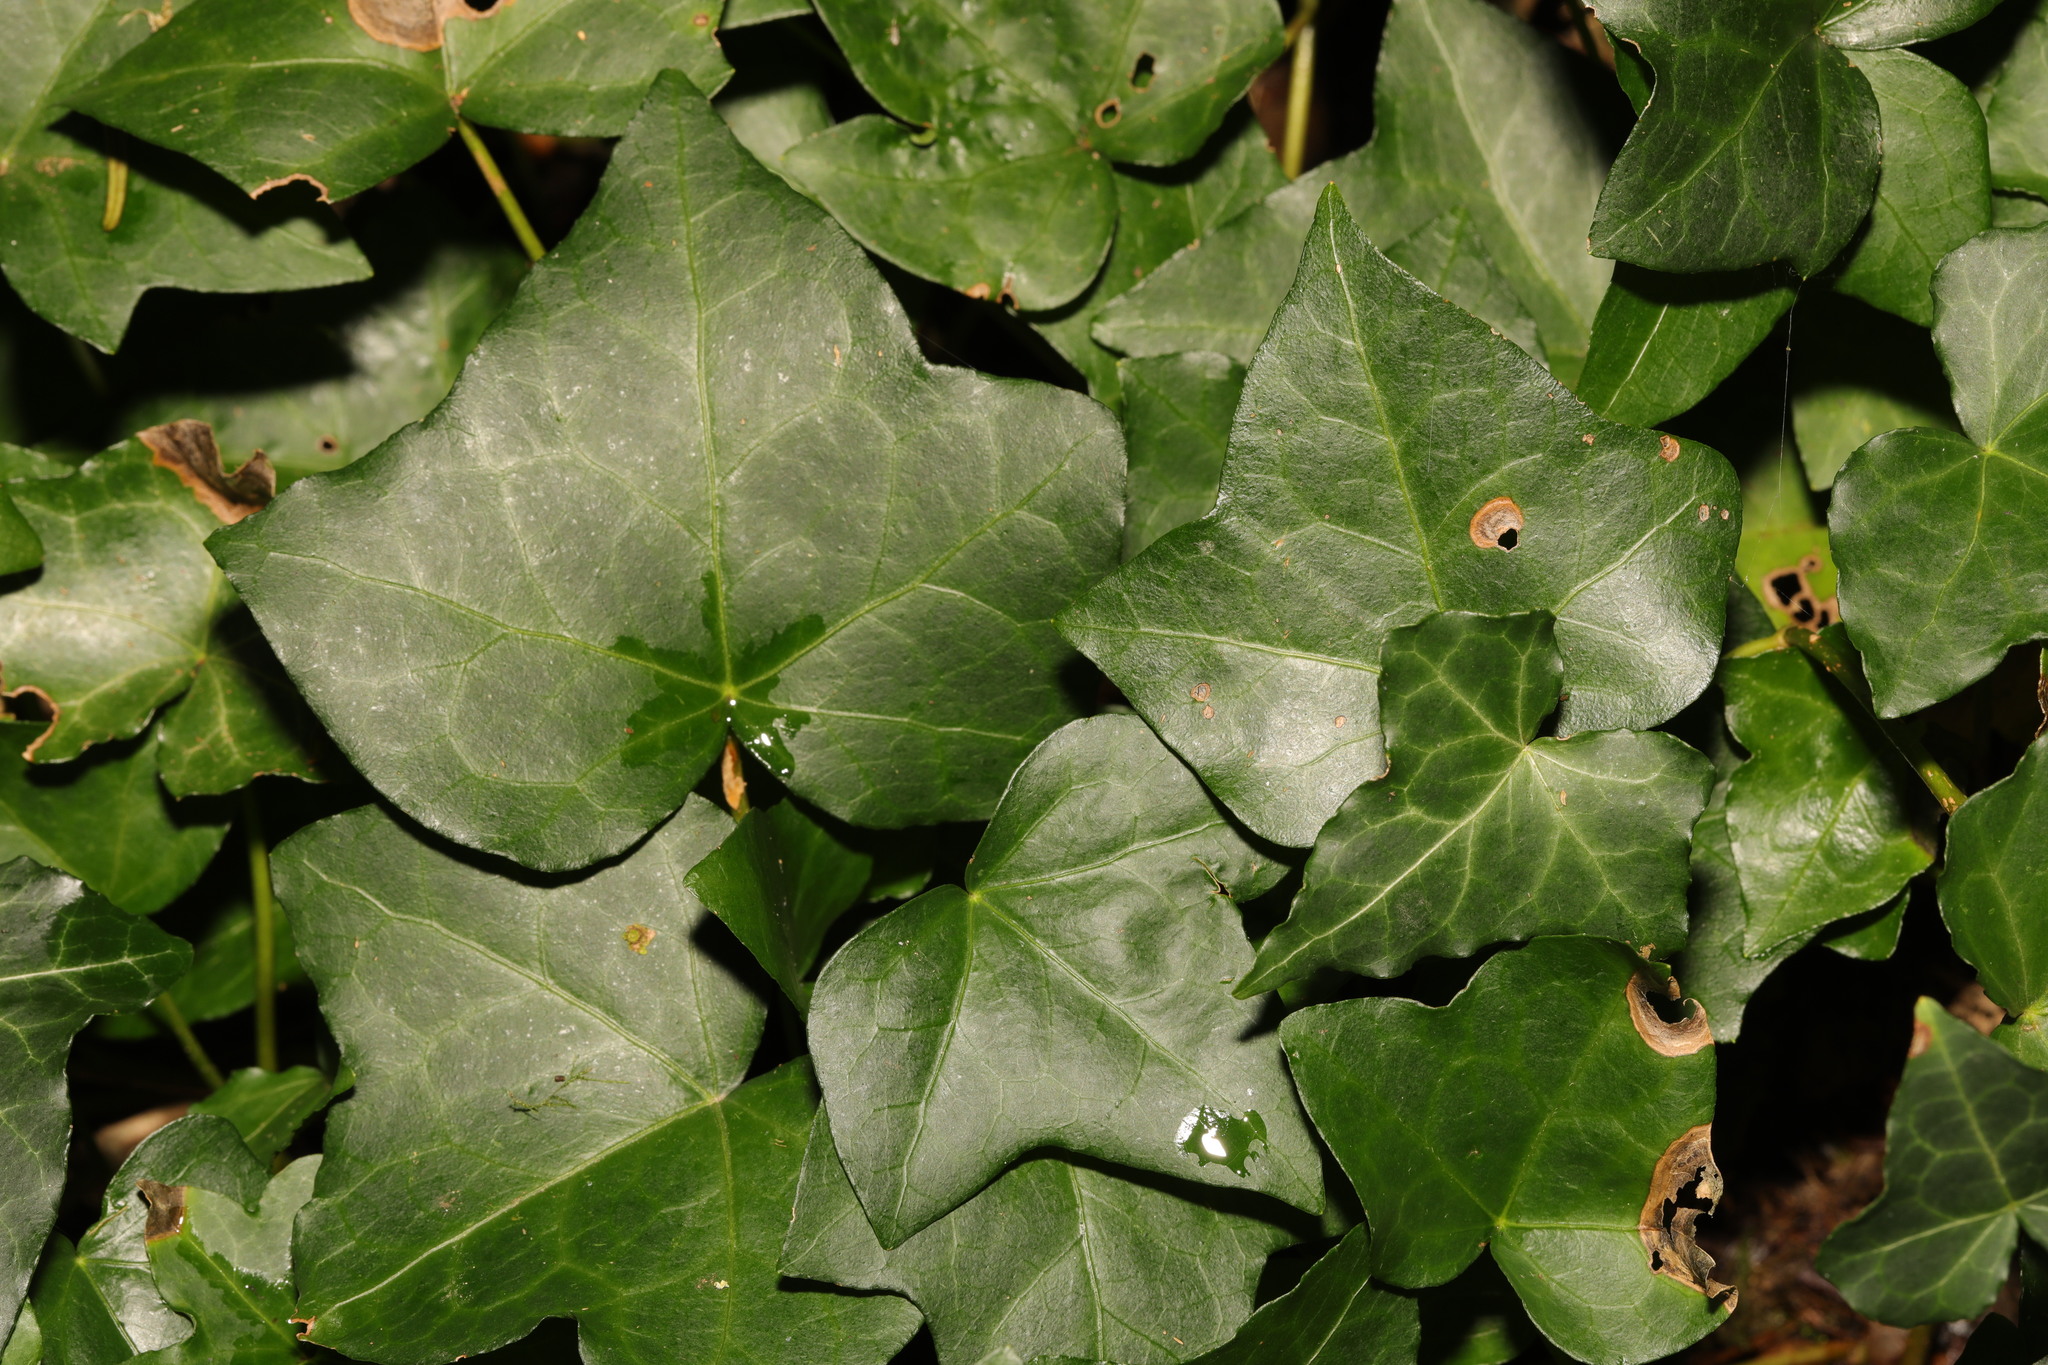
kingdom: Plantae
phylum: Tracheophyta
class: Magnoliopsida
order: Apiales
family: Araliaceae
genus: Hedera
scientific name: Hedera helix
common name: Ivy
